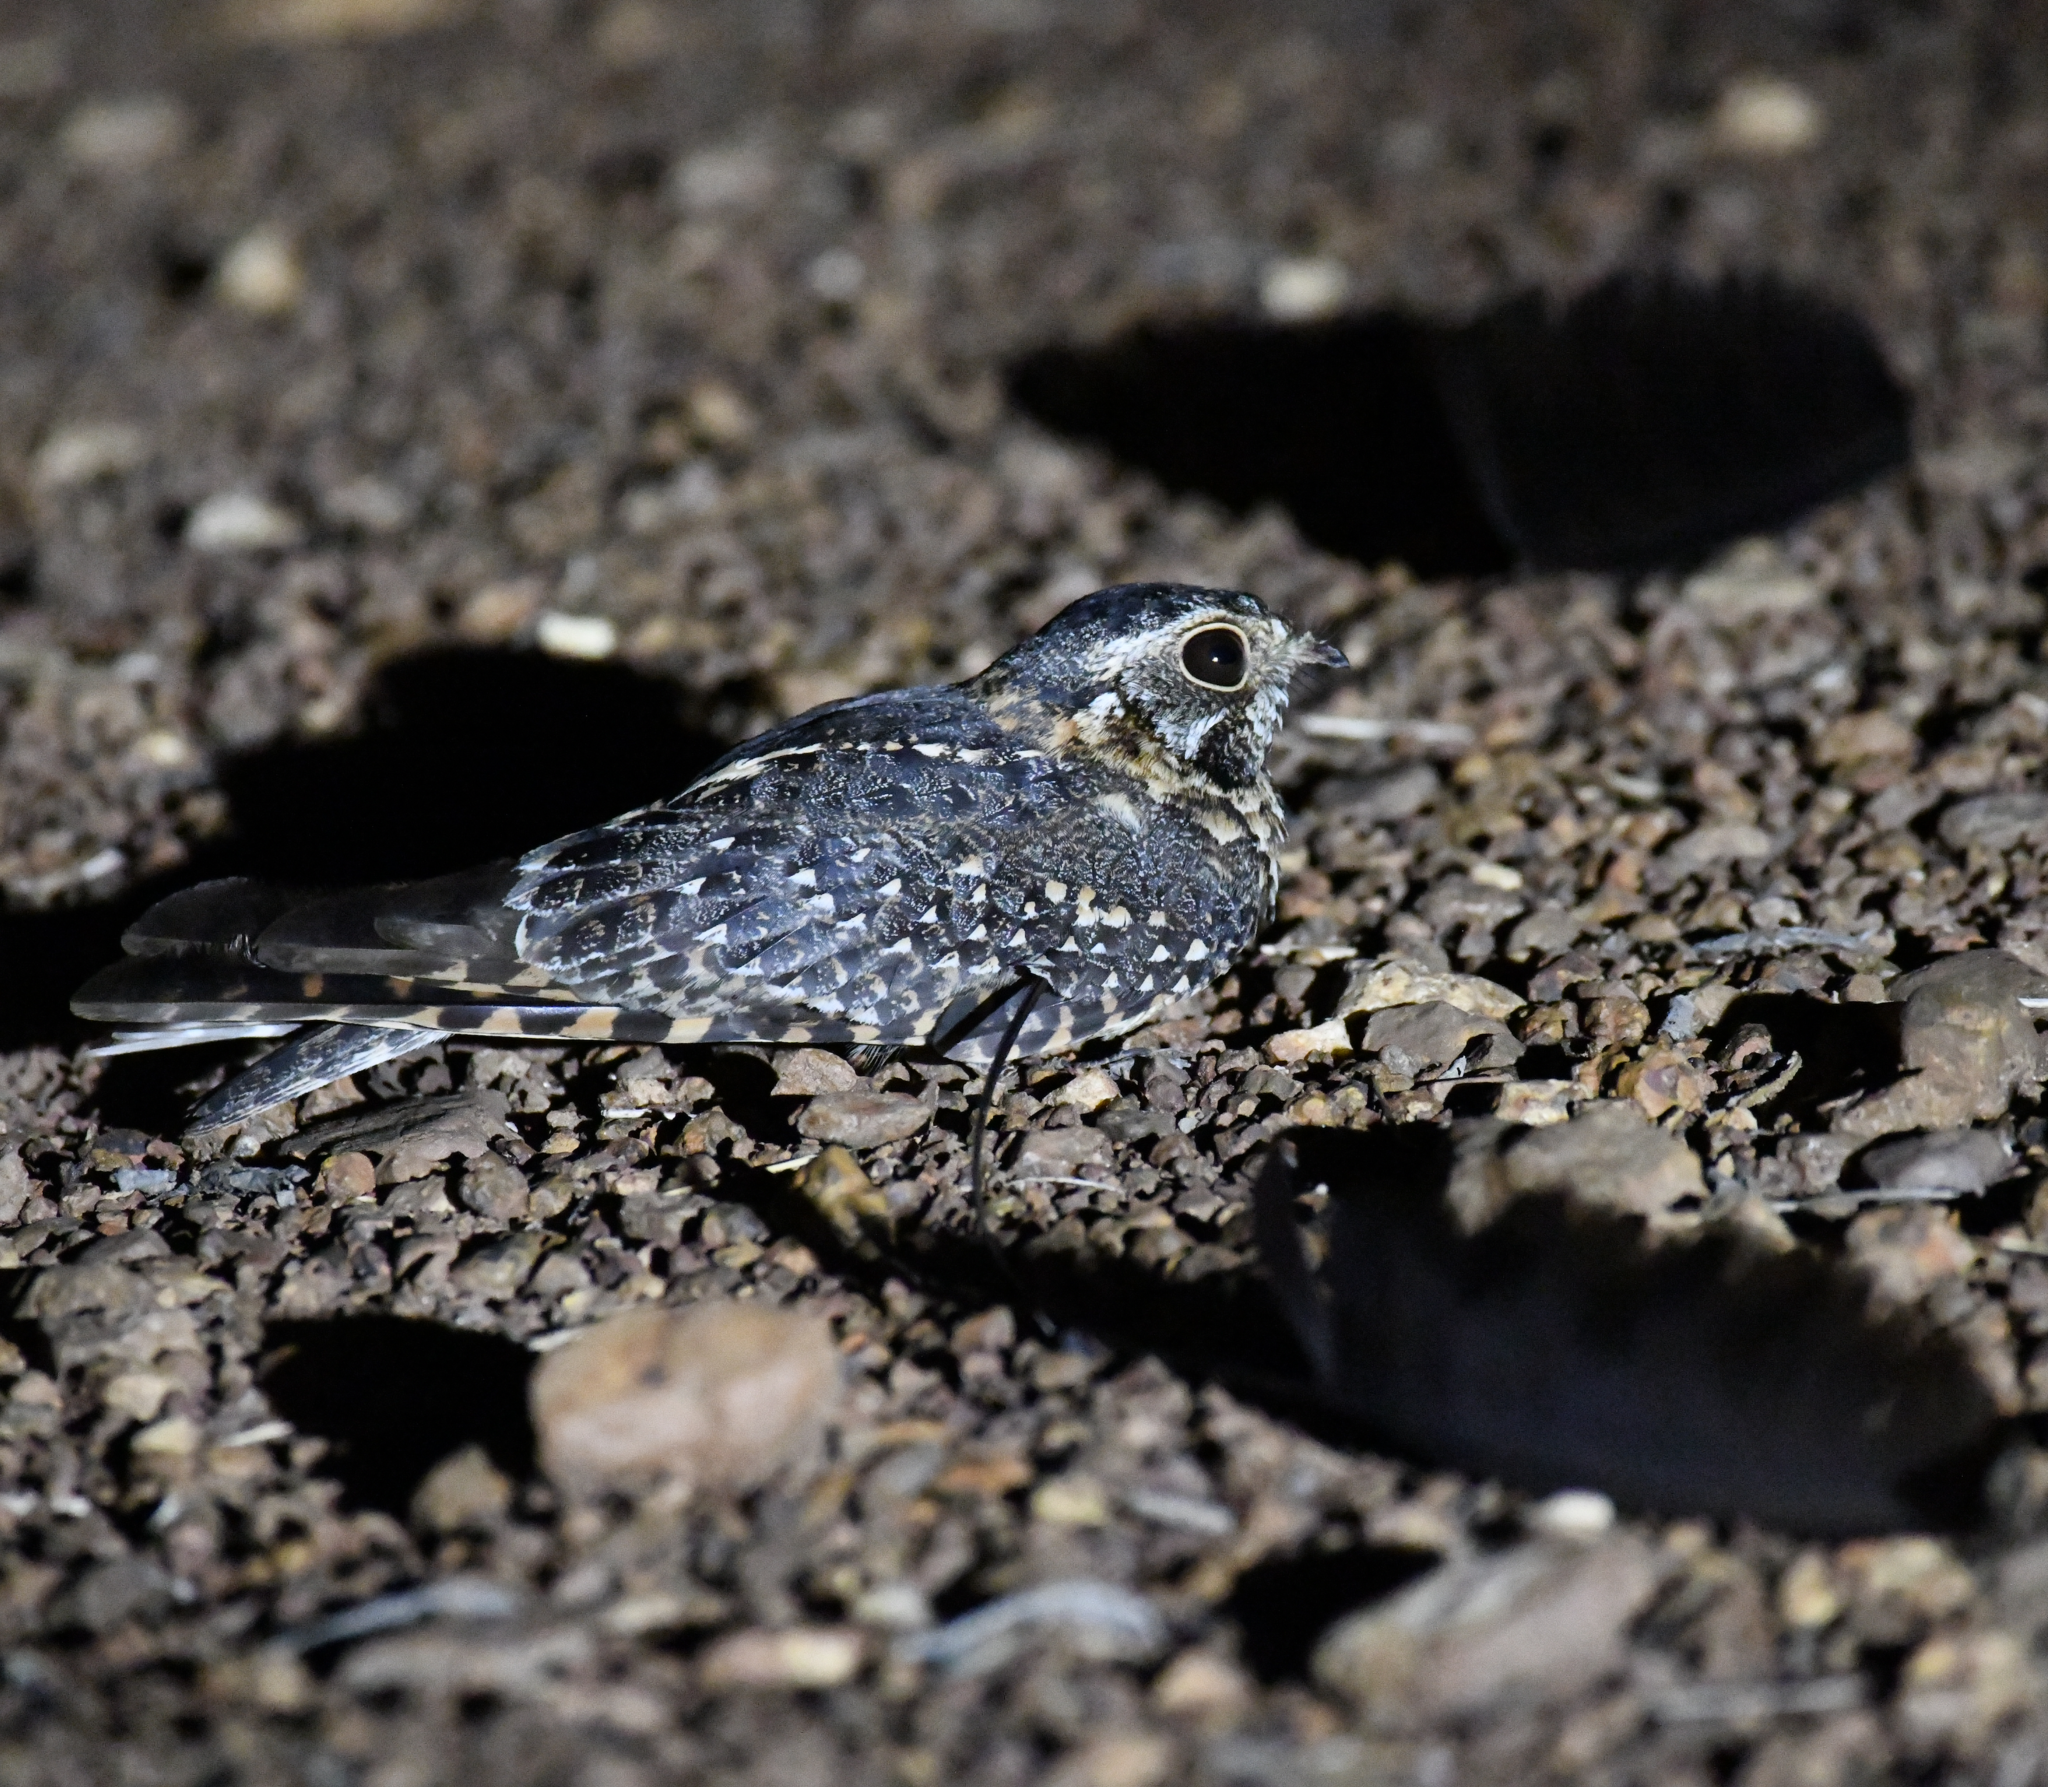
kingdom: Animalia
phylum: Chordata
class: Aves
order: Caprimulgiformes
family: Caprimulgidae
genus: Caprimulgus
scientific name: Caprimulgus longipennis
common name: Standard-winged nightjar
